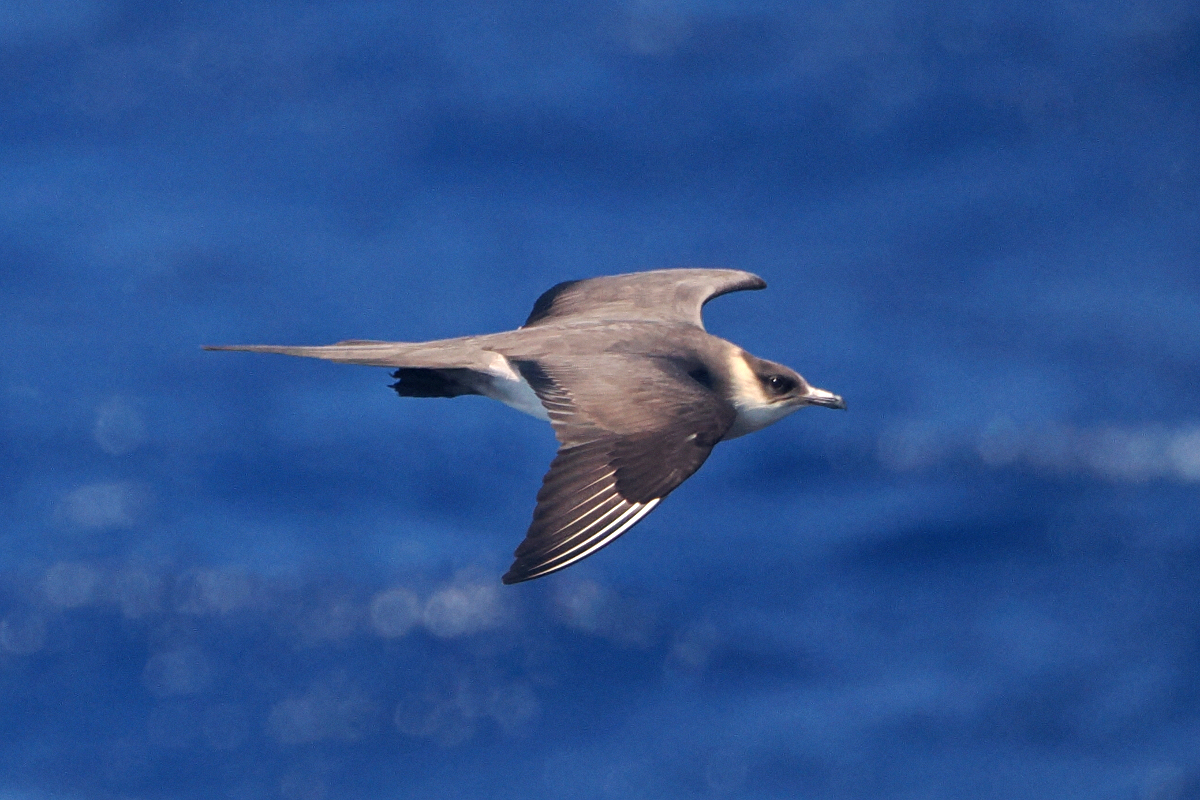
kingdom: Animalia
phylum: Chordata
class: Aves
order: Charadriiformes
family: Stercorariidae
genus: Stercorarius
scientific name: Stercorarius parasiticus
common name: Parasitic jaeger
